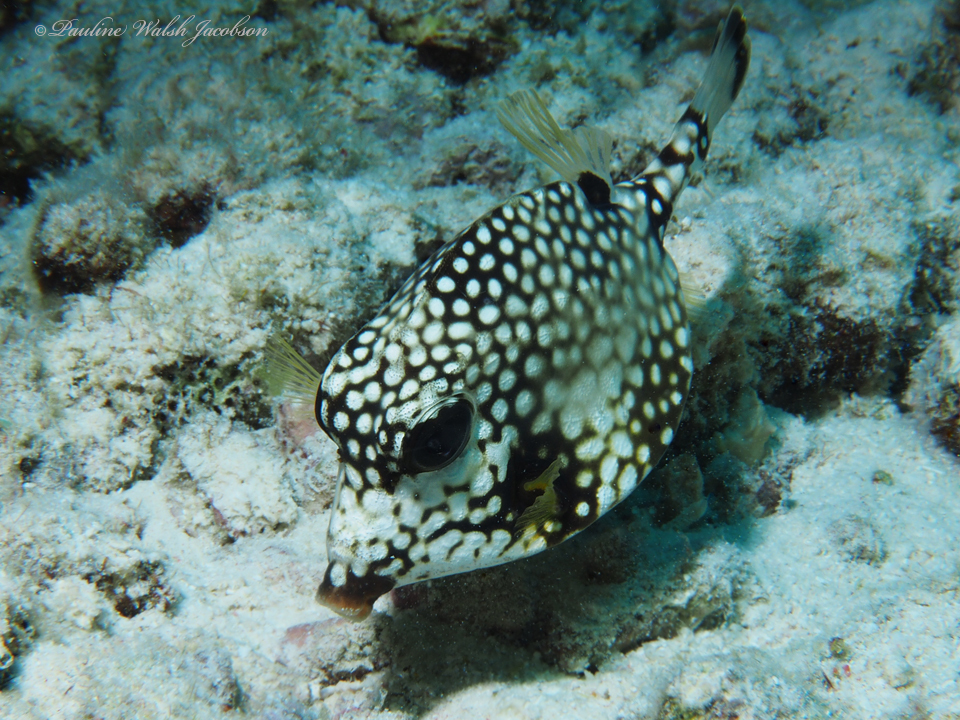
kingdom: Animalia
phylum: Chordata
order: Tetraodontiformes
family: Ostraciidae
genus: Lactophrys
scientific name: Lactophrys triqueter
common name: Smooth trunkfish
